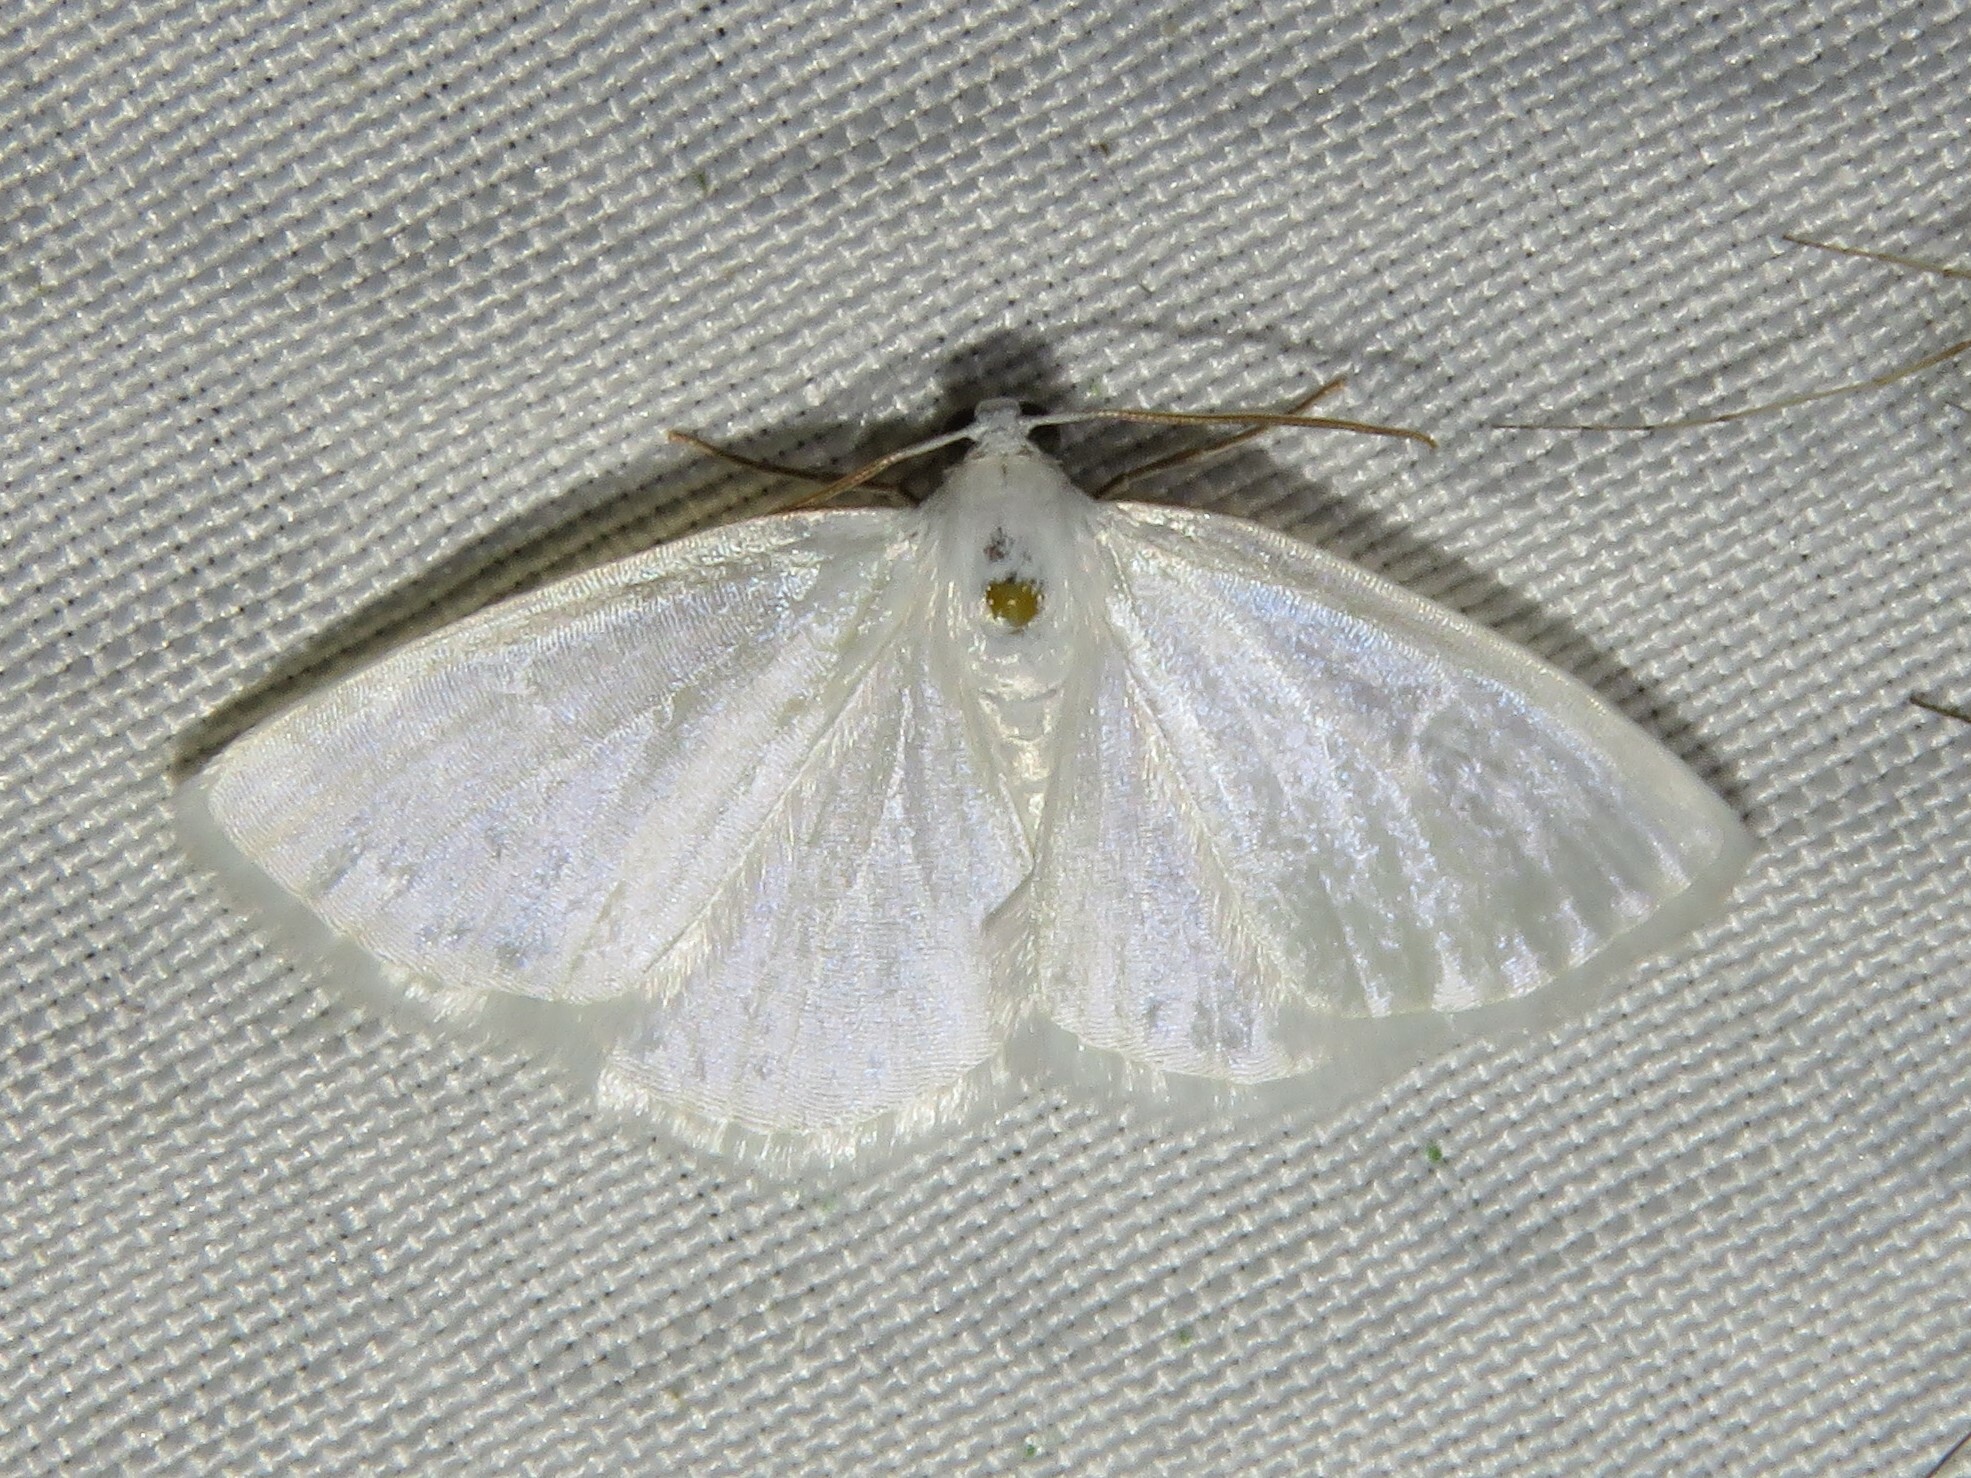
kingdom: Animalia
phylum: Arthropoda
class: Insecta
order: Lepidoptera
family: Geometridae
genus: Lomographa
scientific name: Lomographa vestaliata
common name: White spring moth
